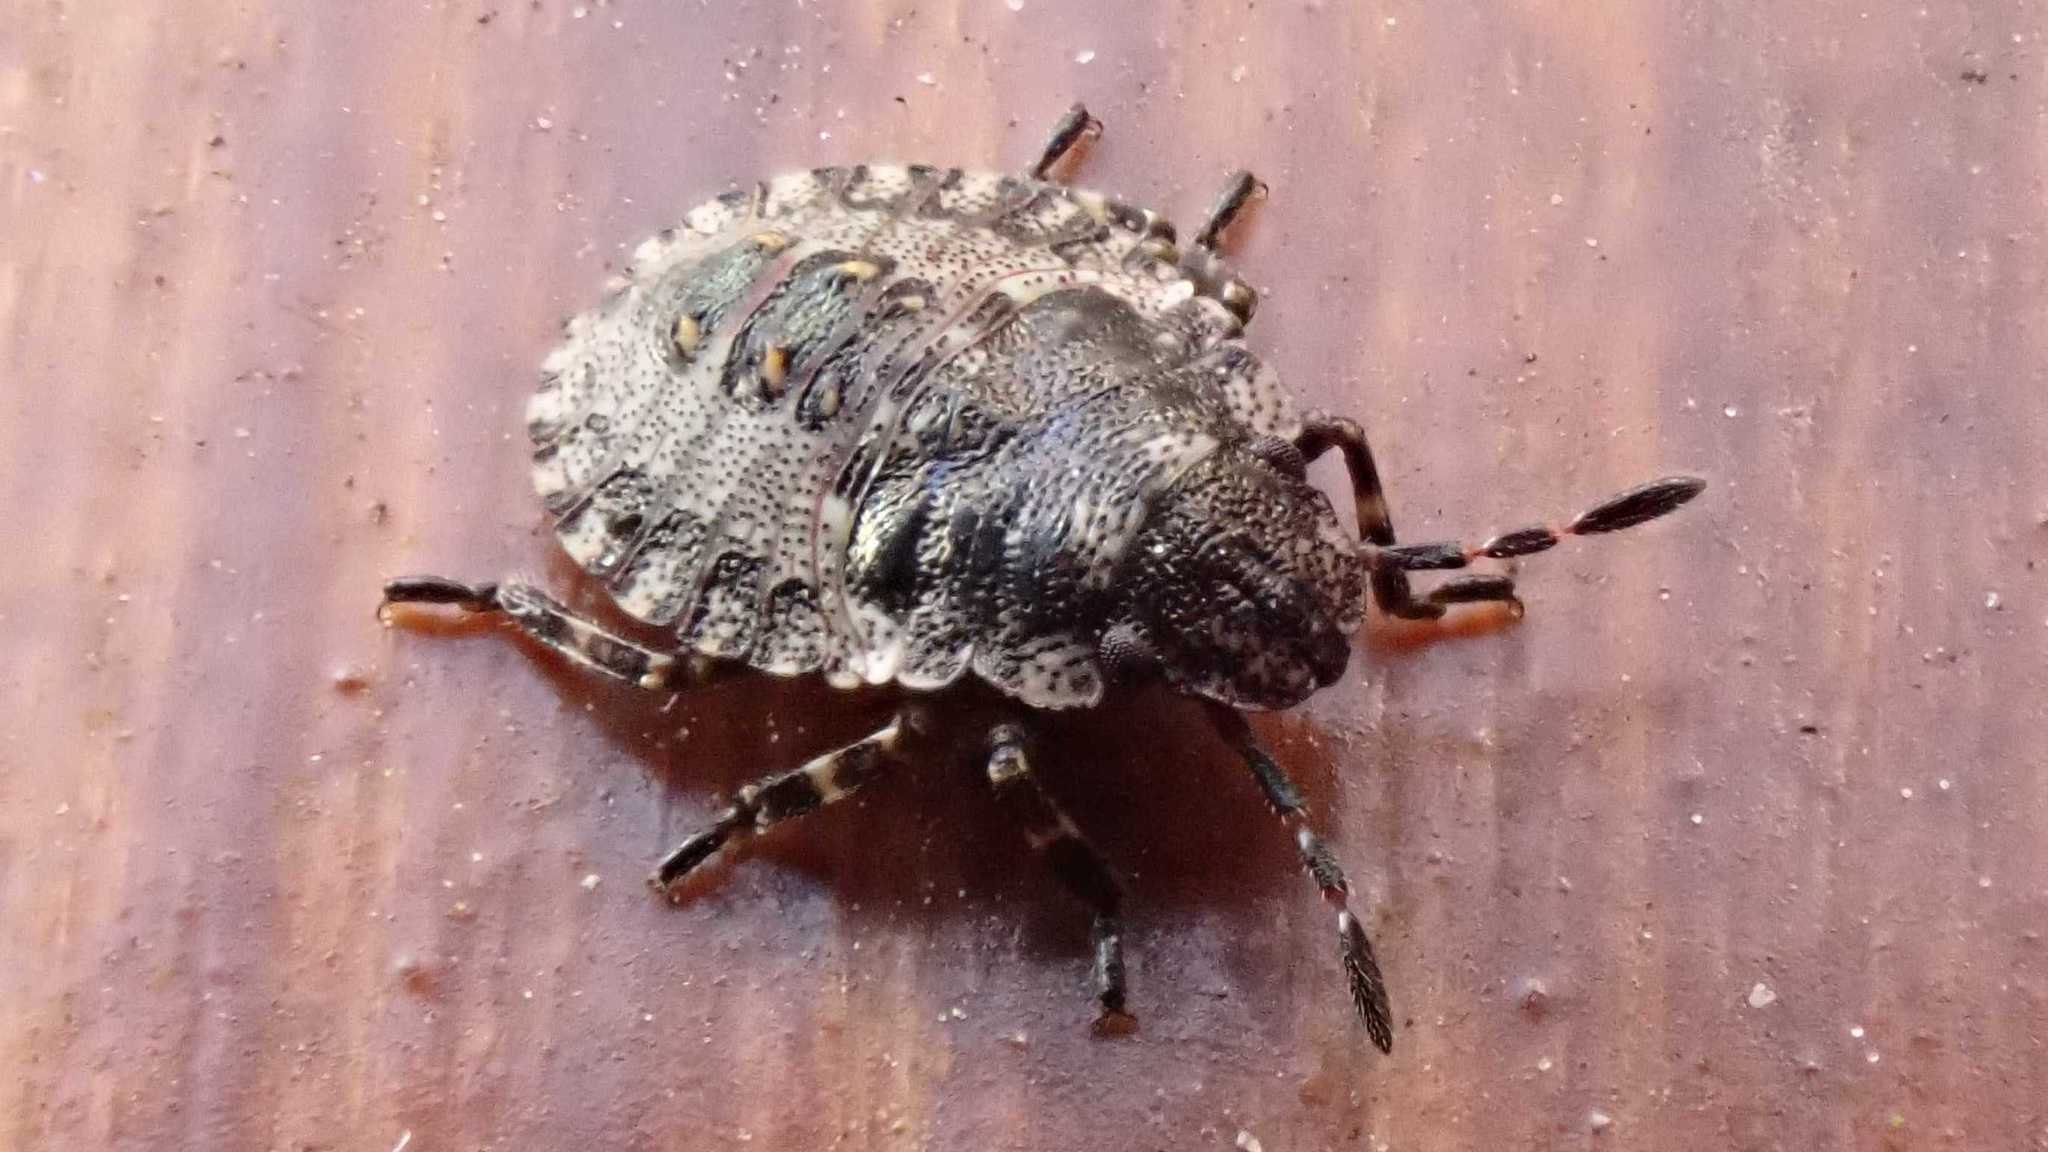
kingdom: Animalia
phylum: Arthropoda
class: Insecta
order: Hemiptera
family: Pentatomidae
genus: Pentatoma
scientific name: Pentatoma rufipes
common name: Forest bug
